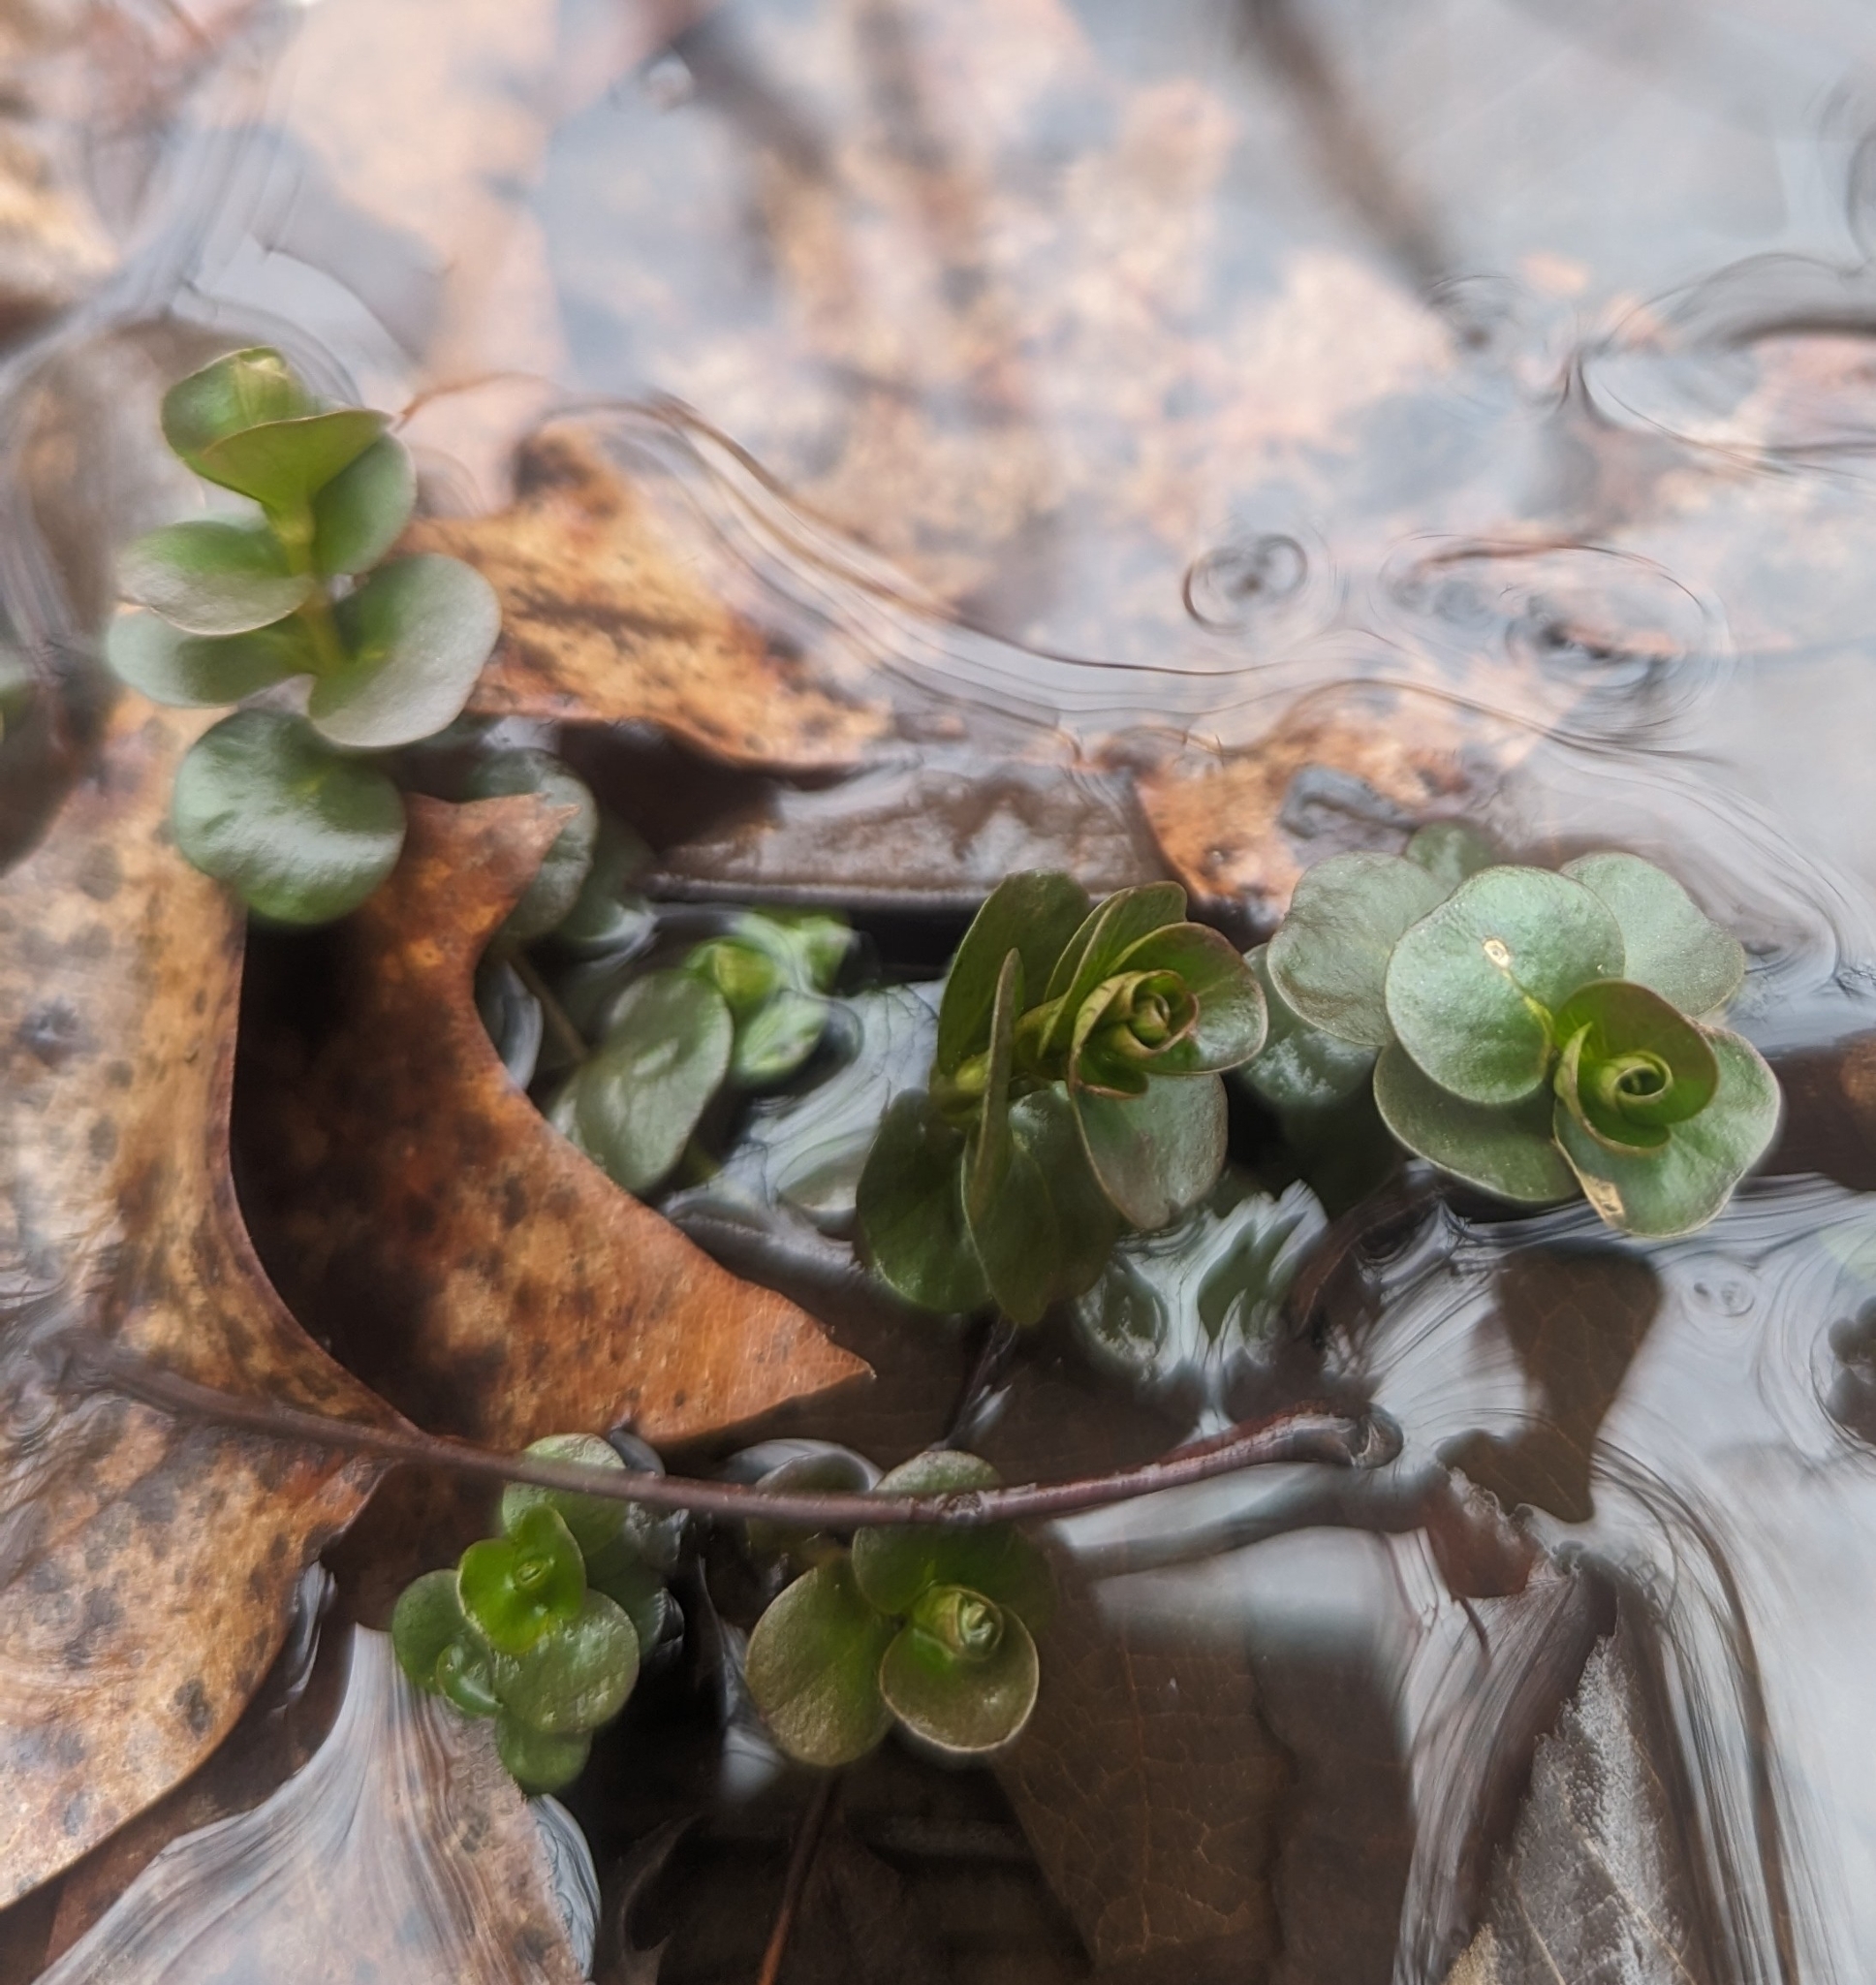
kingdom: Plantae
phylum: Tracheophyta
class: Magnoliopsida
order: Ericales
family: Primulaceae
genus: Lysimachia
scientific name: Lysimachia nummularia
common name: Moneywort
